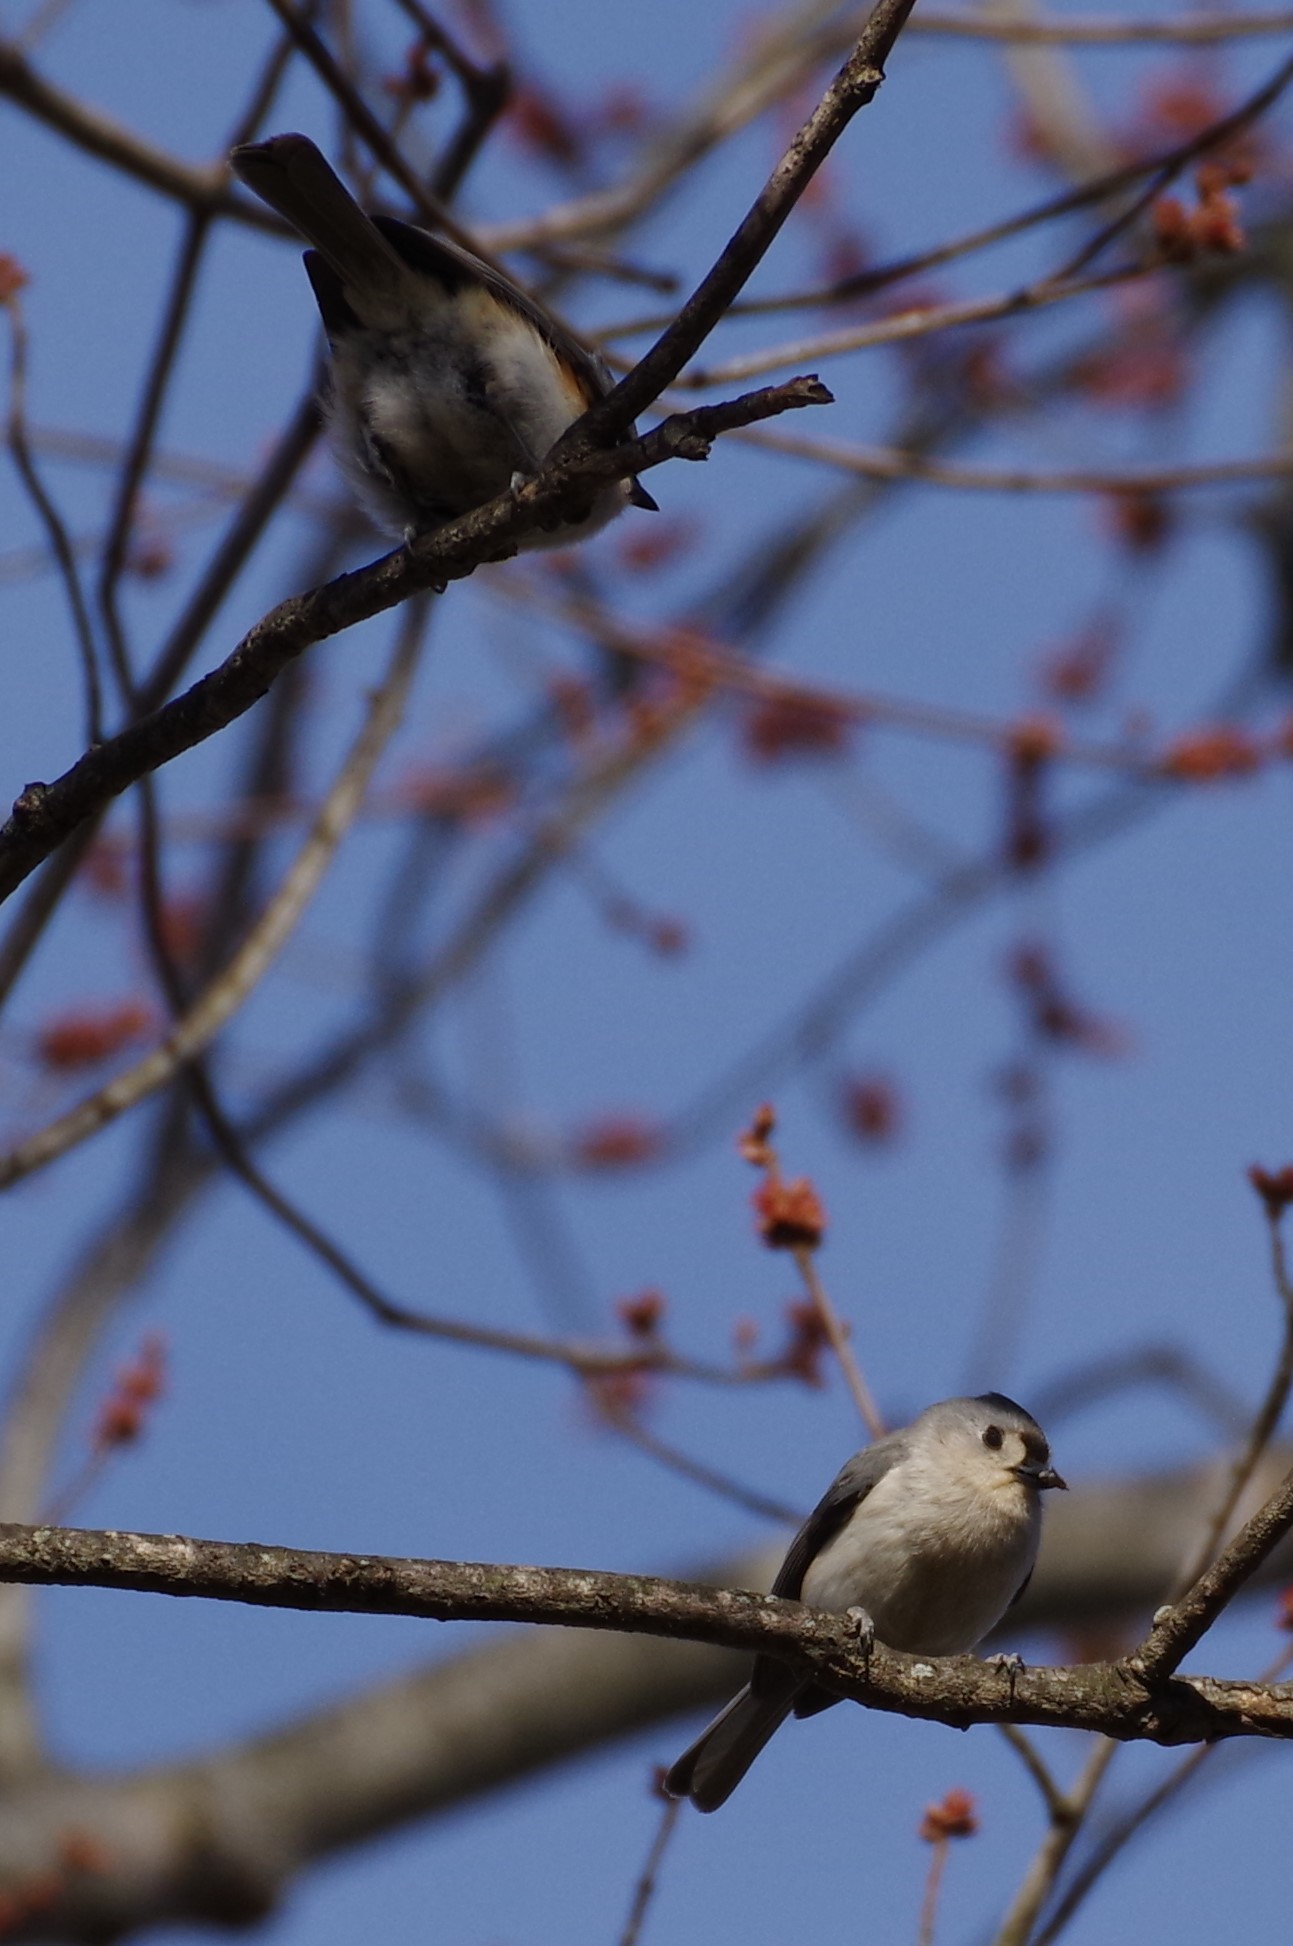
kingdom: Animalia
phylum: Chordata
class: Aves
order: Passeriformes
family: Paridae
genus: Baeolophus
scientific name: Baeolophus bicolor
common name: Tufted titmouse
